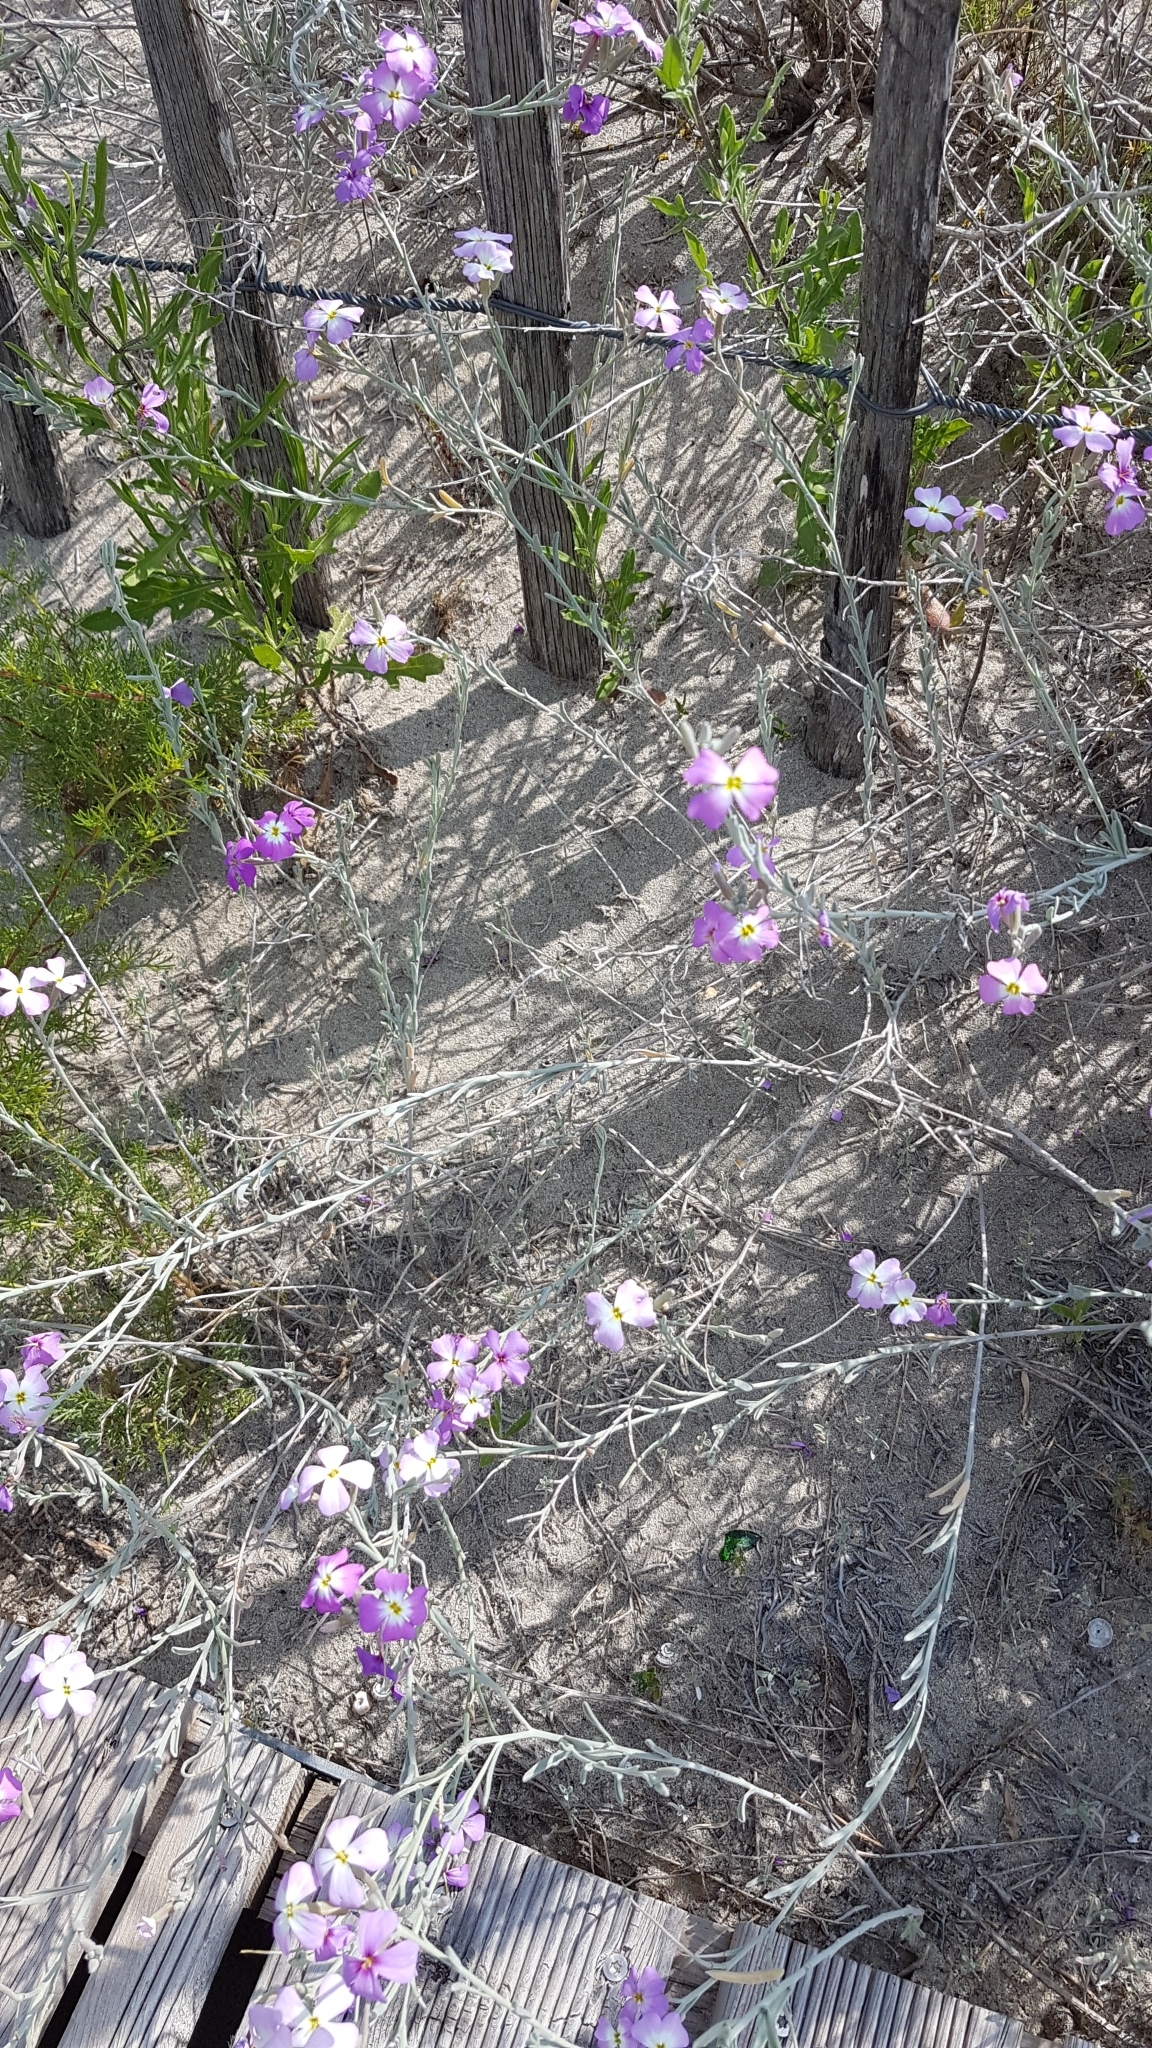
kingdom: Plantae
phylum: Tracheophyta
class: Magnoliopsida
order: Brassicales
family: Brassicaceae
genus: Marcuskochia
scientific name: Marcuskochia littorea
